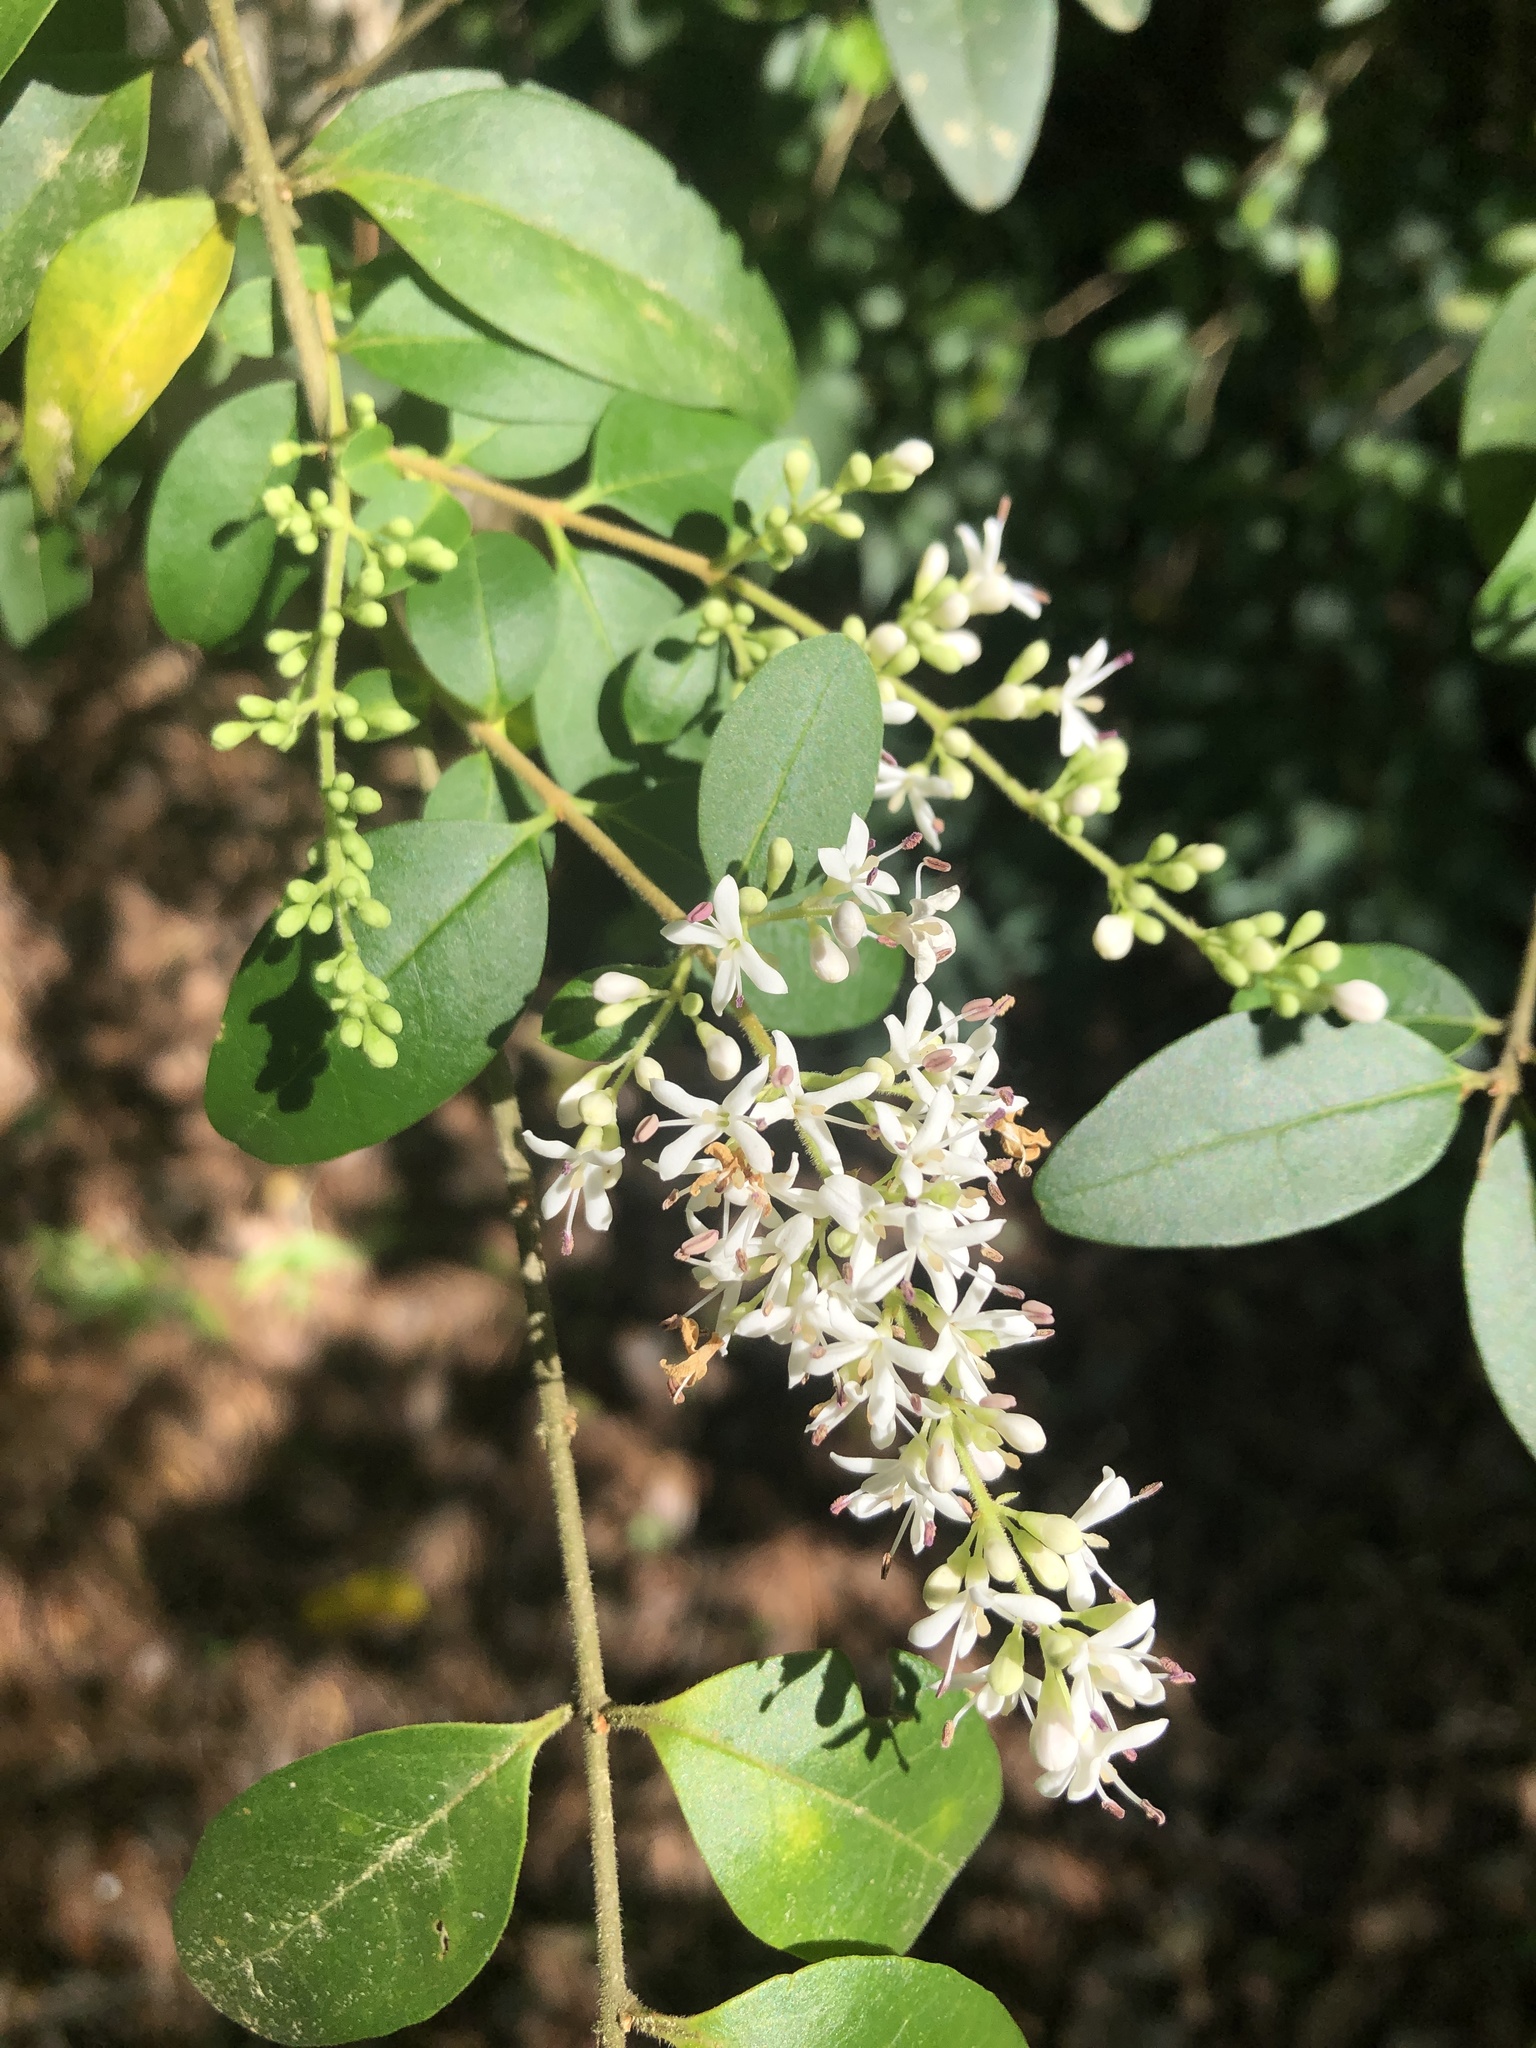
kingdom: Plantae
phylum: Tracheophyta
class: Magnoliopsida
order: Lamiales
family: Oleaceae
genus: Ligustrum
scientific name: Ligustrum sinense
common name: Chinese privet
